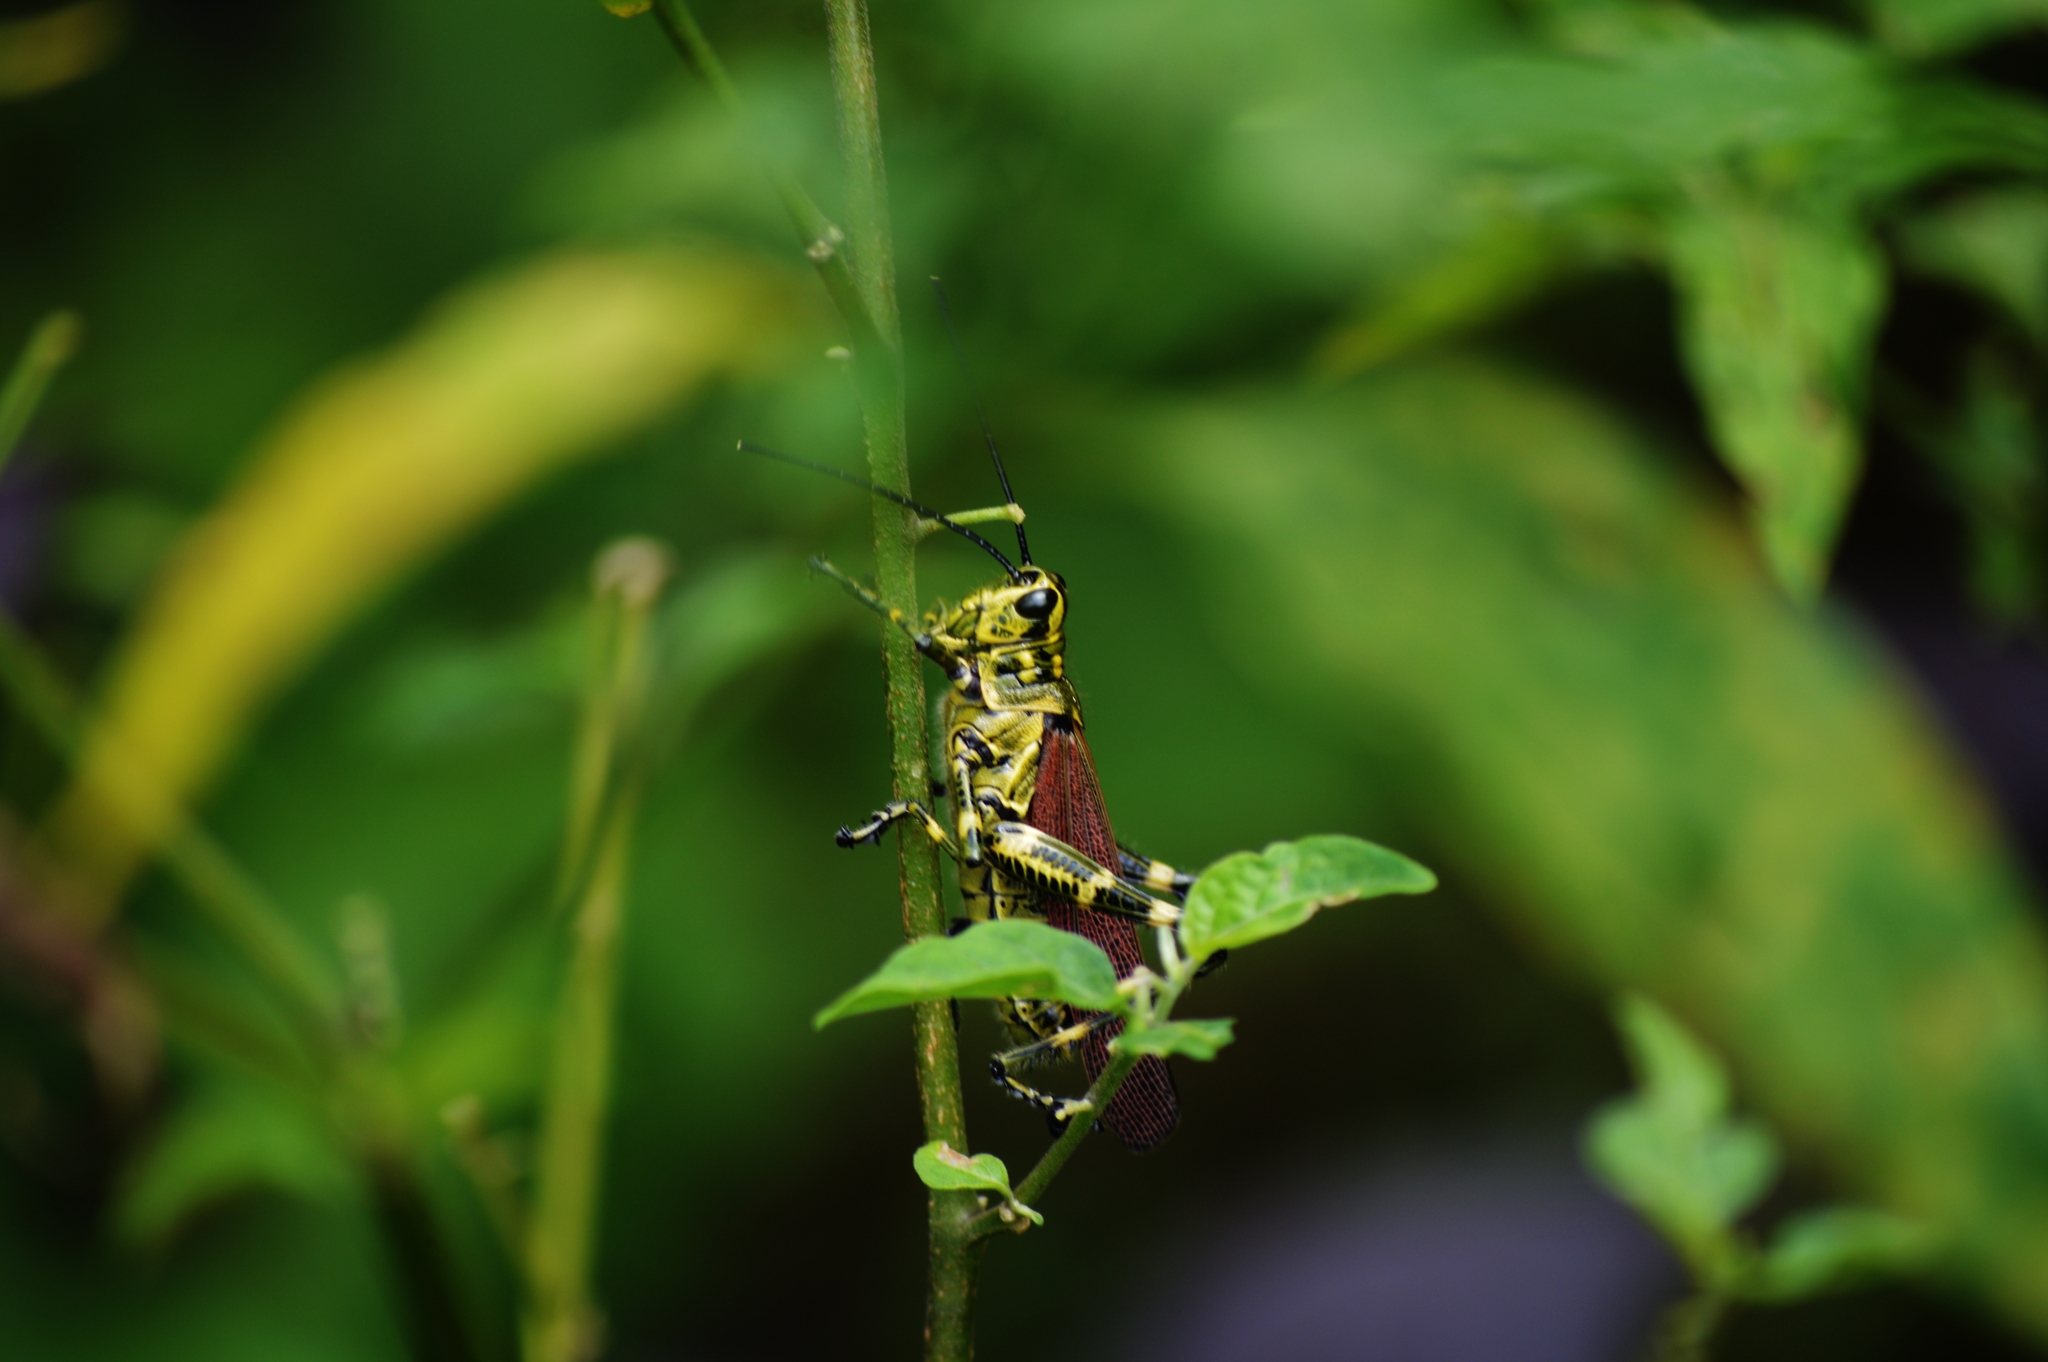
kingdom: Animalia
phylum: Arthropoda
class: Insecta
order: Orthoptera
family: Romaleidae
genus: Chromacris
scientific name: Chromacris speciosa
